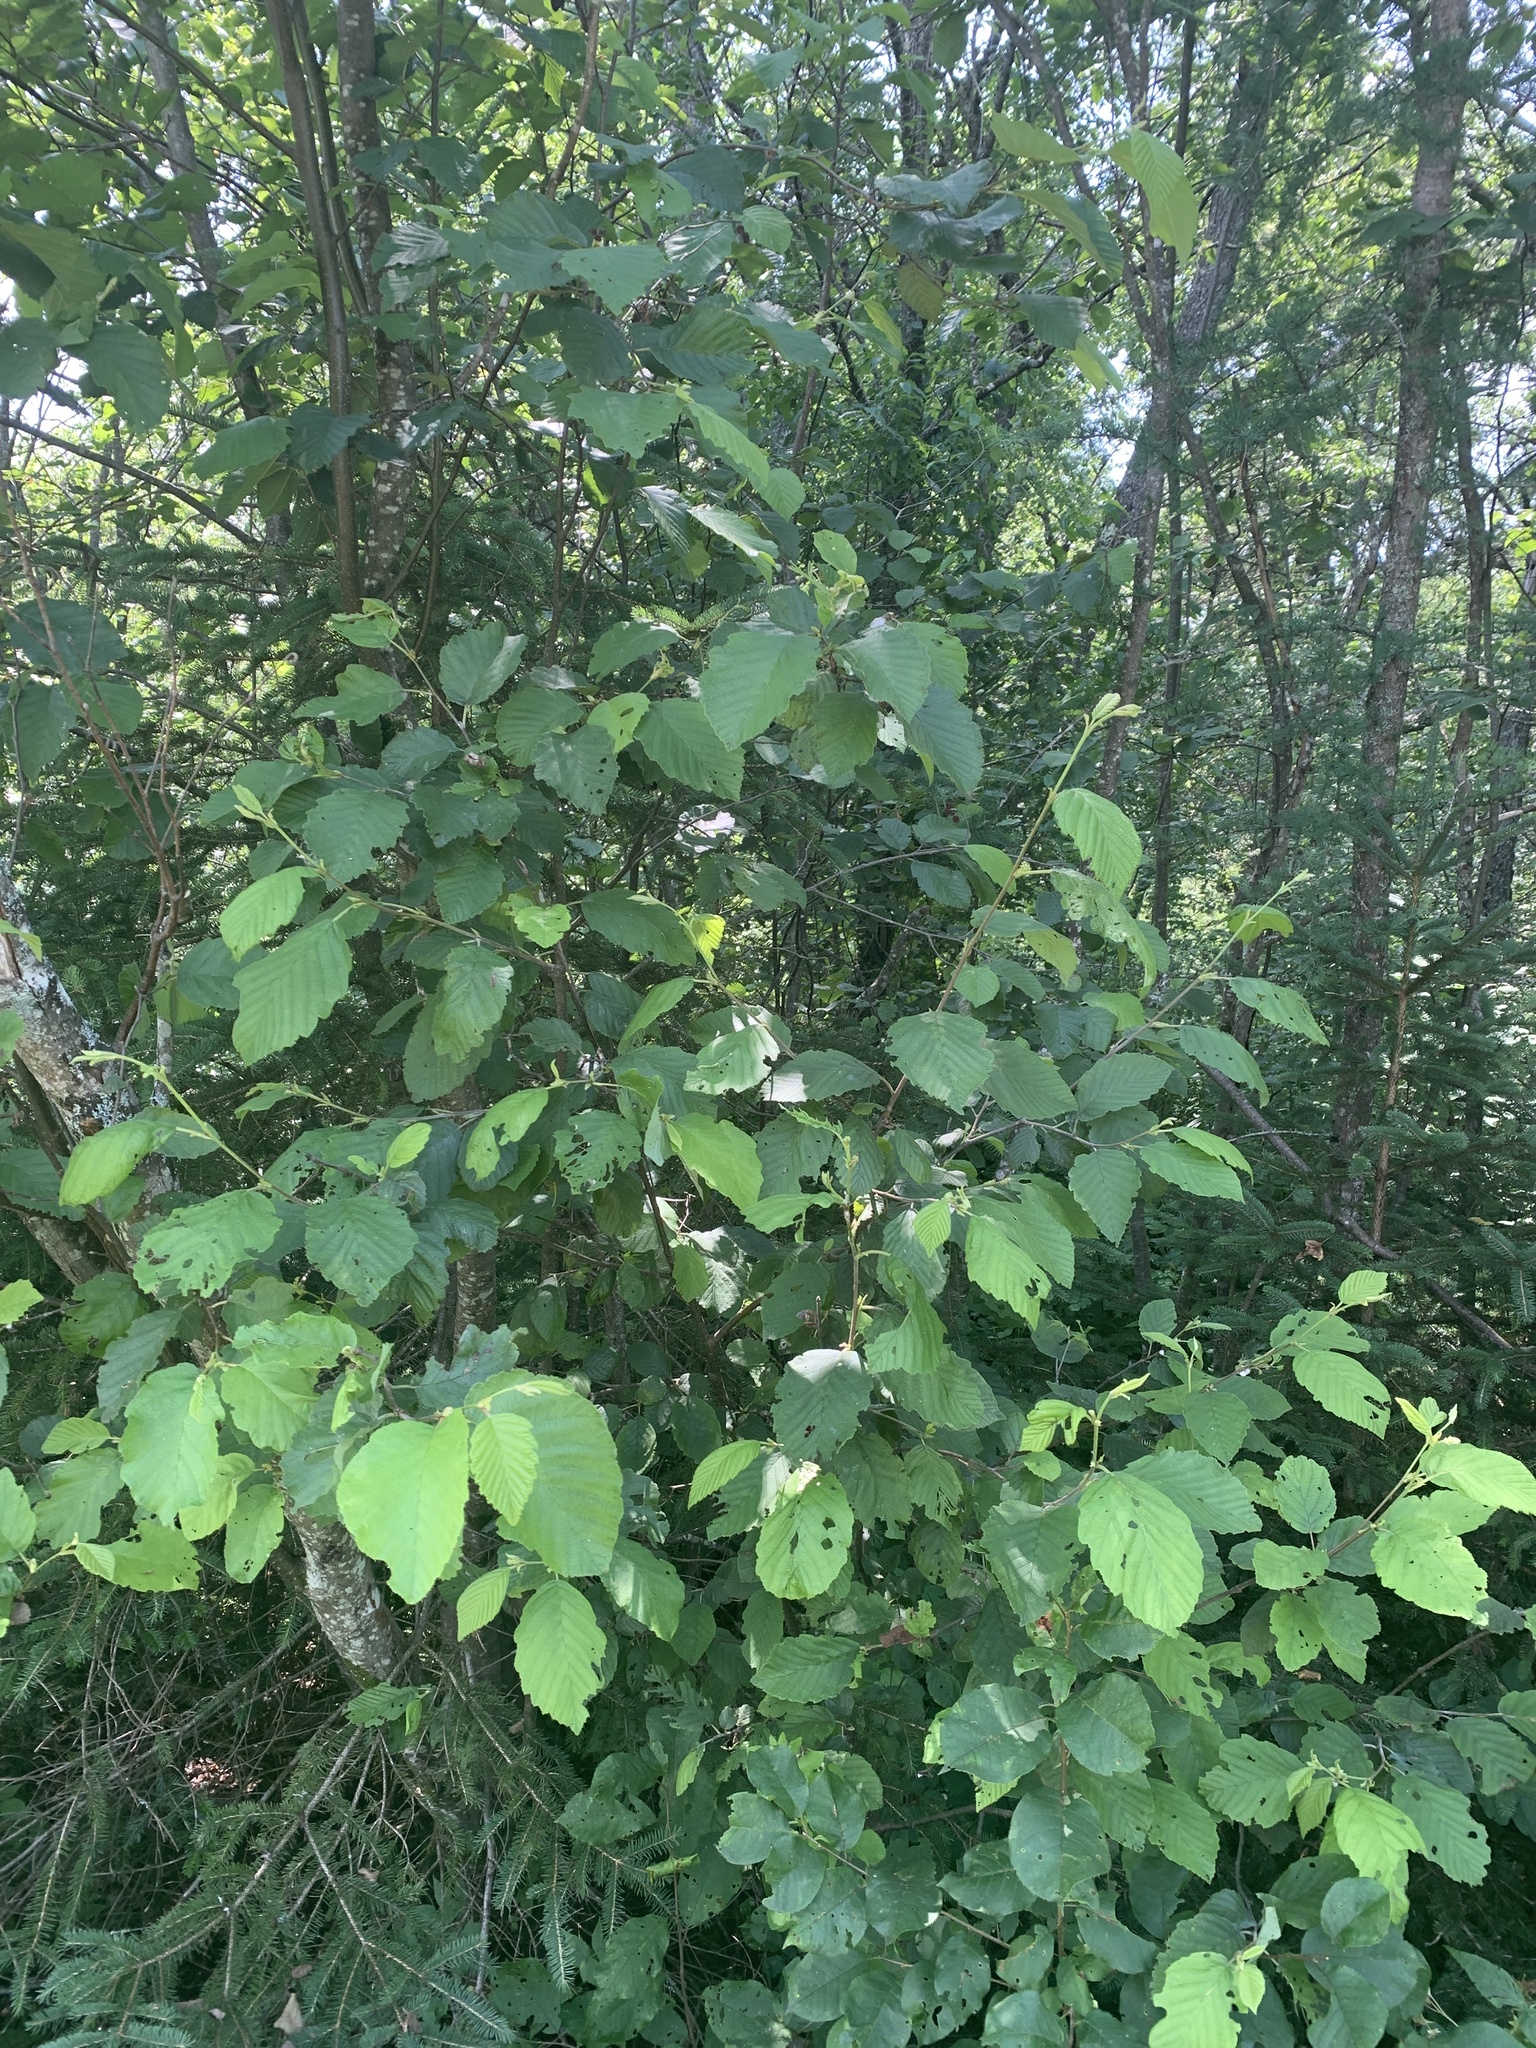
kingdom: Plantae
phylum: Tracheophyta
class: Magnoliopsida
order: Fagales
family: Betulaceae
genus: Alnus
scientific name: Alnus incana
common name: Grey alder
